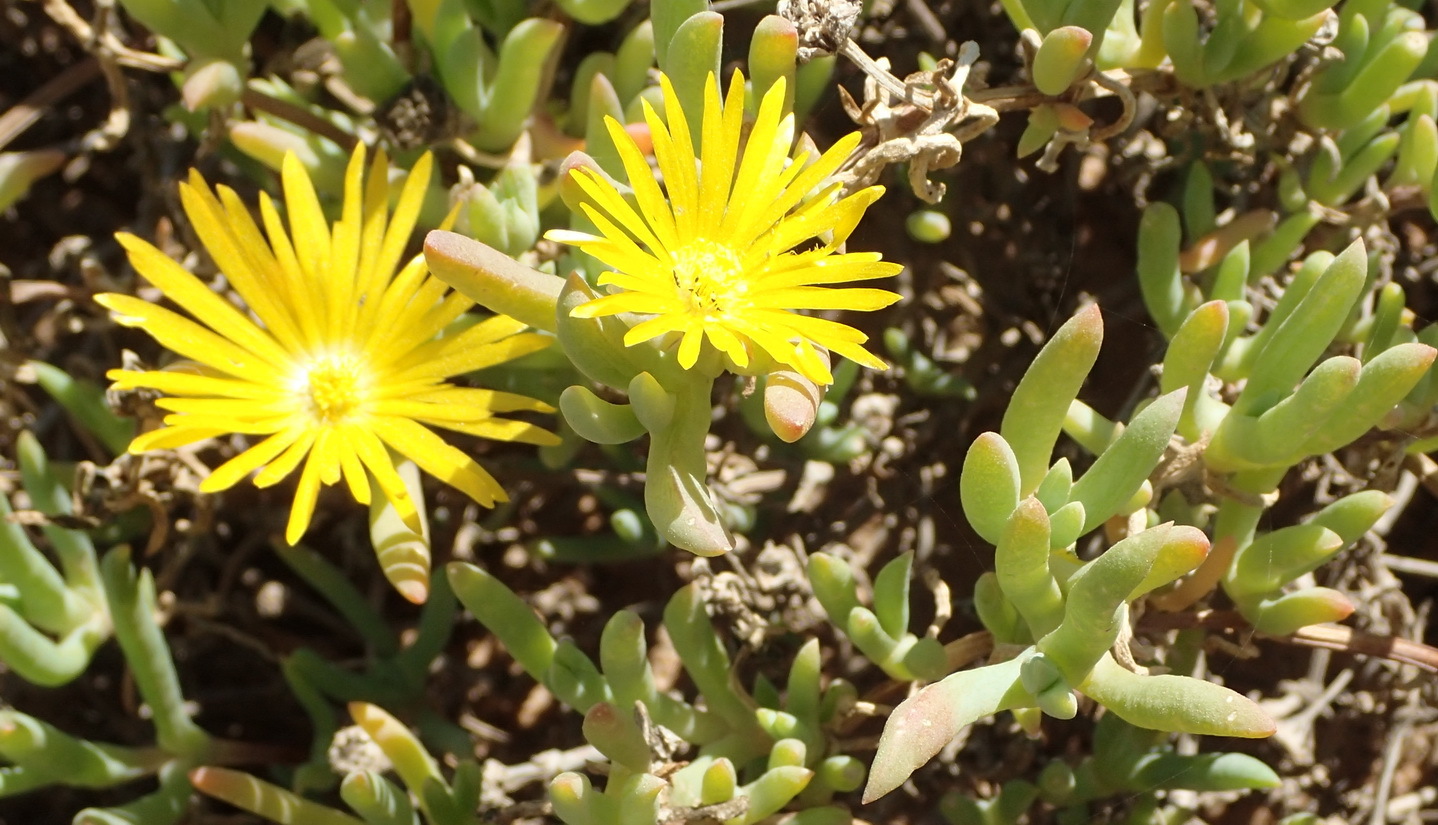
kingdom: Plantae
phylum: Tracheophyta
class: Magnoliopsida
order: Caryophyllales
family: Aizoaceae
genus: Malephora
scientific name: Malephora lutea
